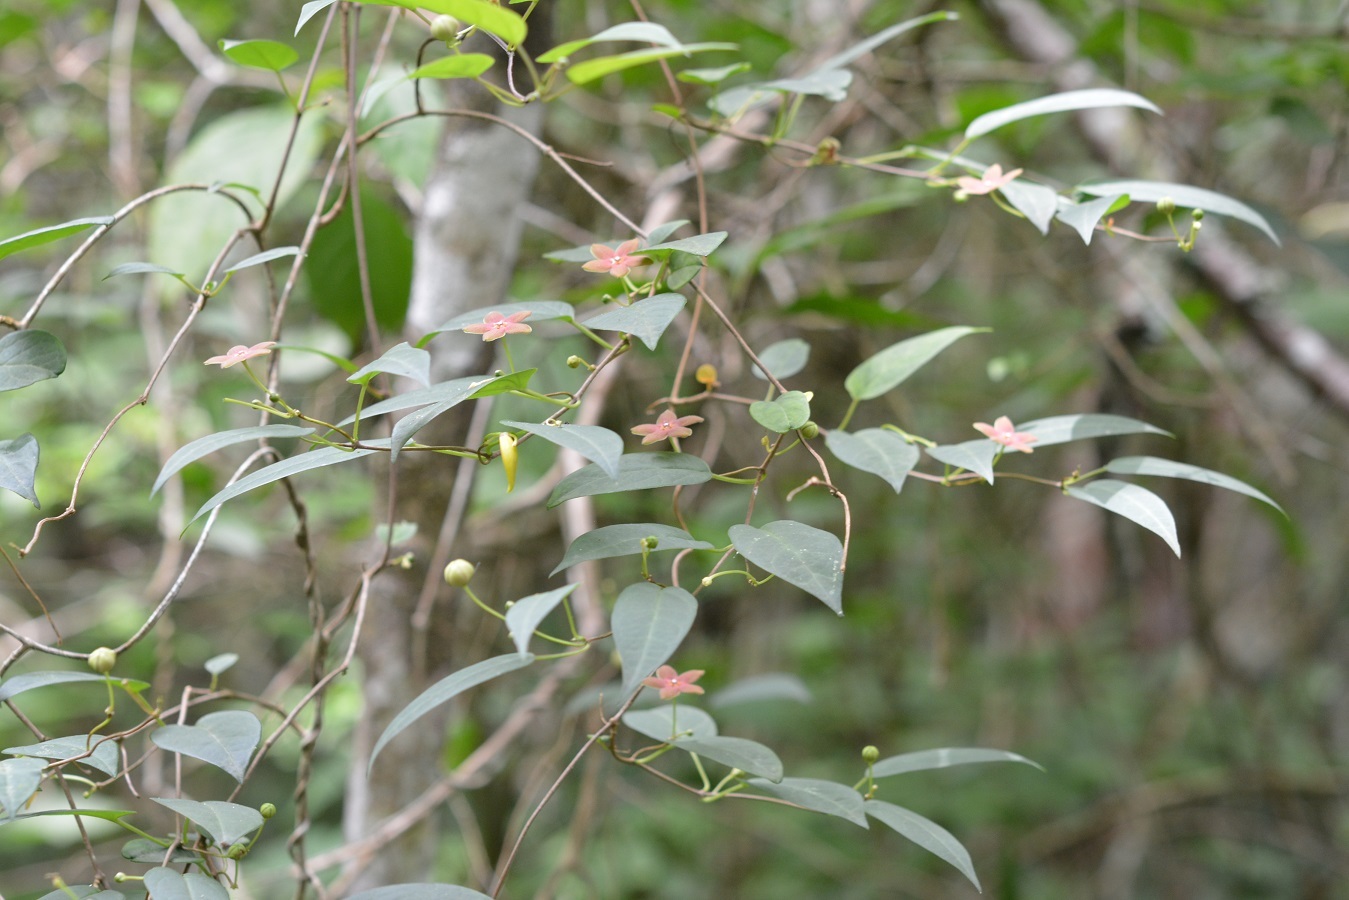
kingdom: Plantae
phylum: Tracheophyta
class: Magnoliopsida
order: Gentianales
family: Apocynaceae
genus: Ruehssia
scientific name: Ruehssia sumiderensis
